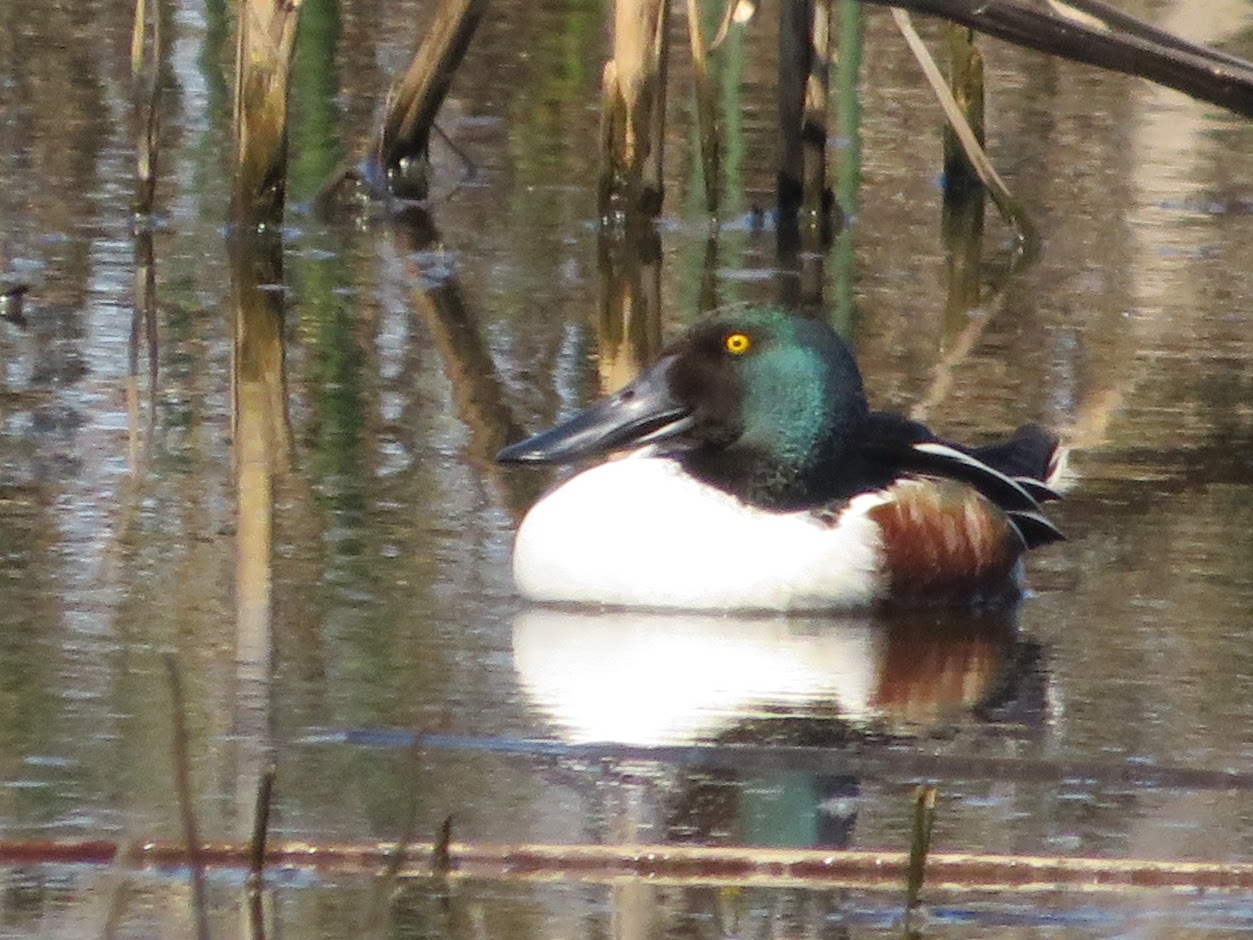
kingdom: Animalia
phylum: Chordata
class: Aves
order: Anseriformes
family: Anatidae
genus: Spatula
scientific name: Spatula clypeata
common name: Northern shoveler
